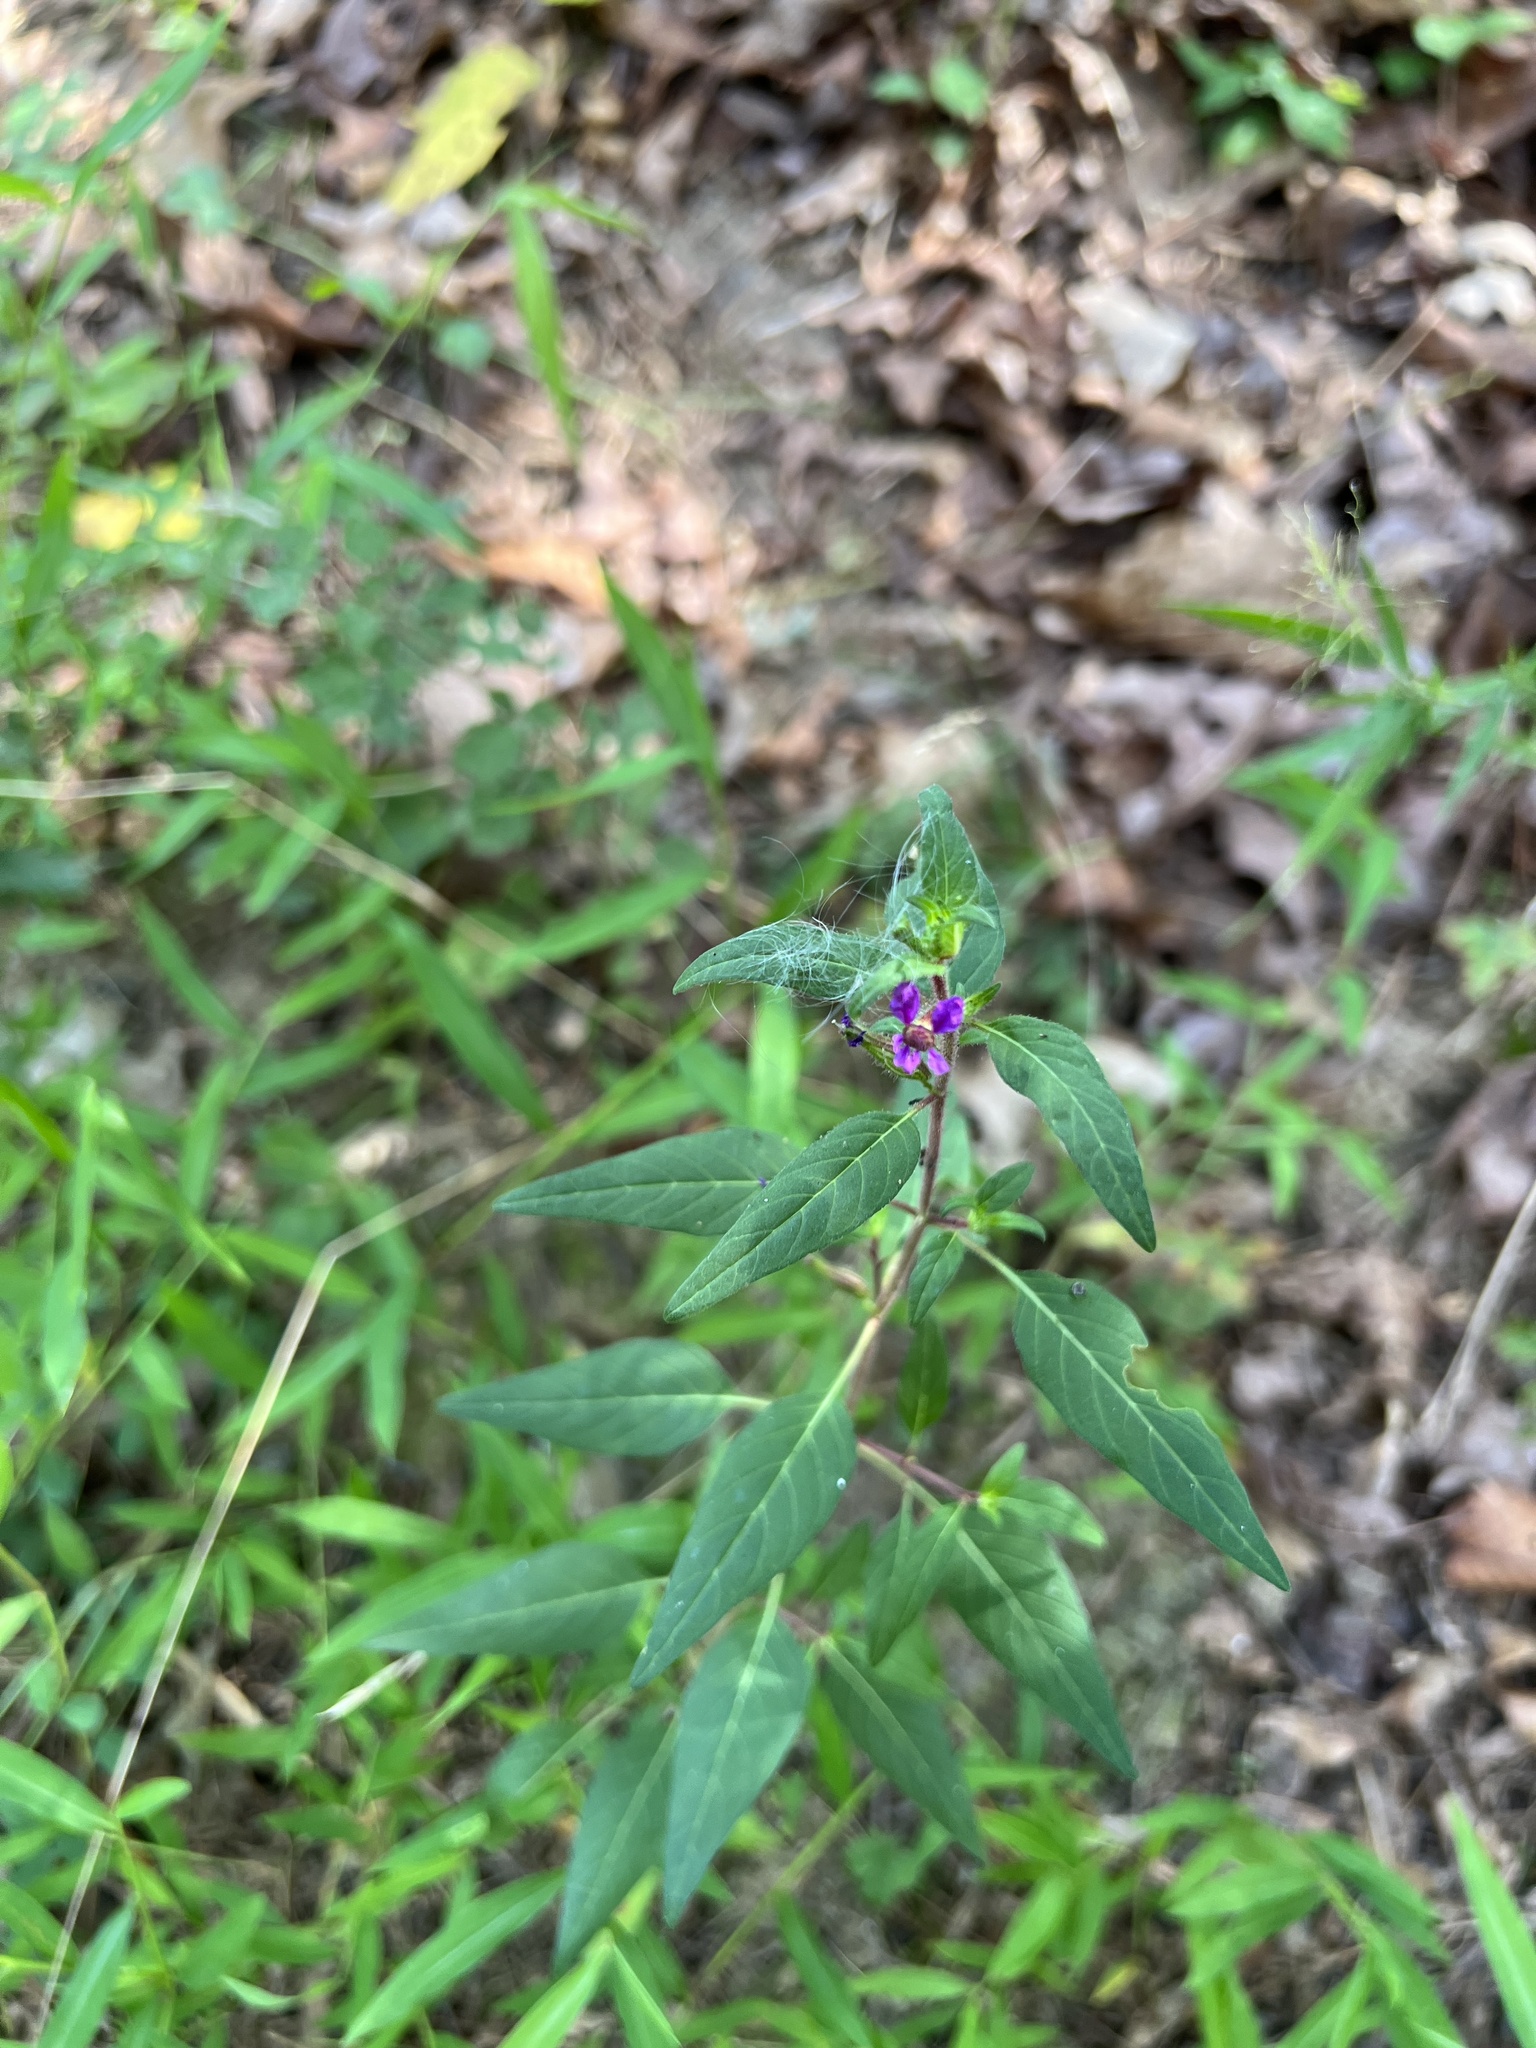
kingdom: Plantae
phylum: Tracheophyta
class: Magnoliopsida
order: Myrtales
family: Lythraceae
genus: Cuphea
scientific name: Cuphea viscosissima
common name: Clammy cuphea
